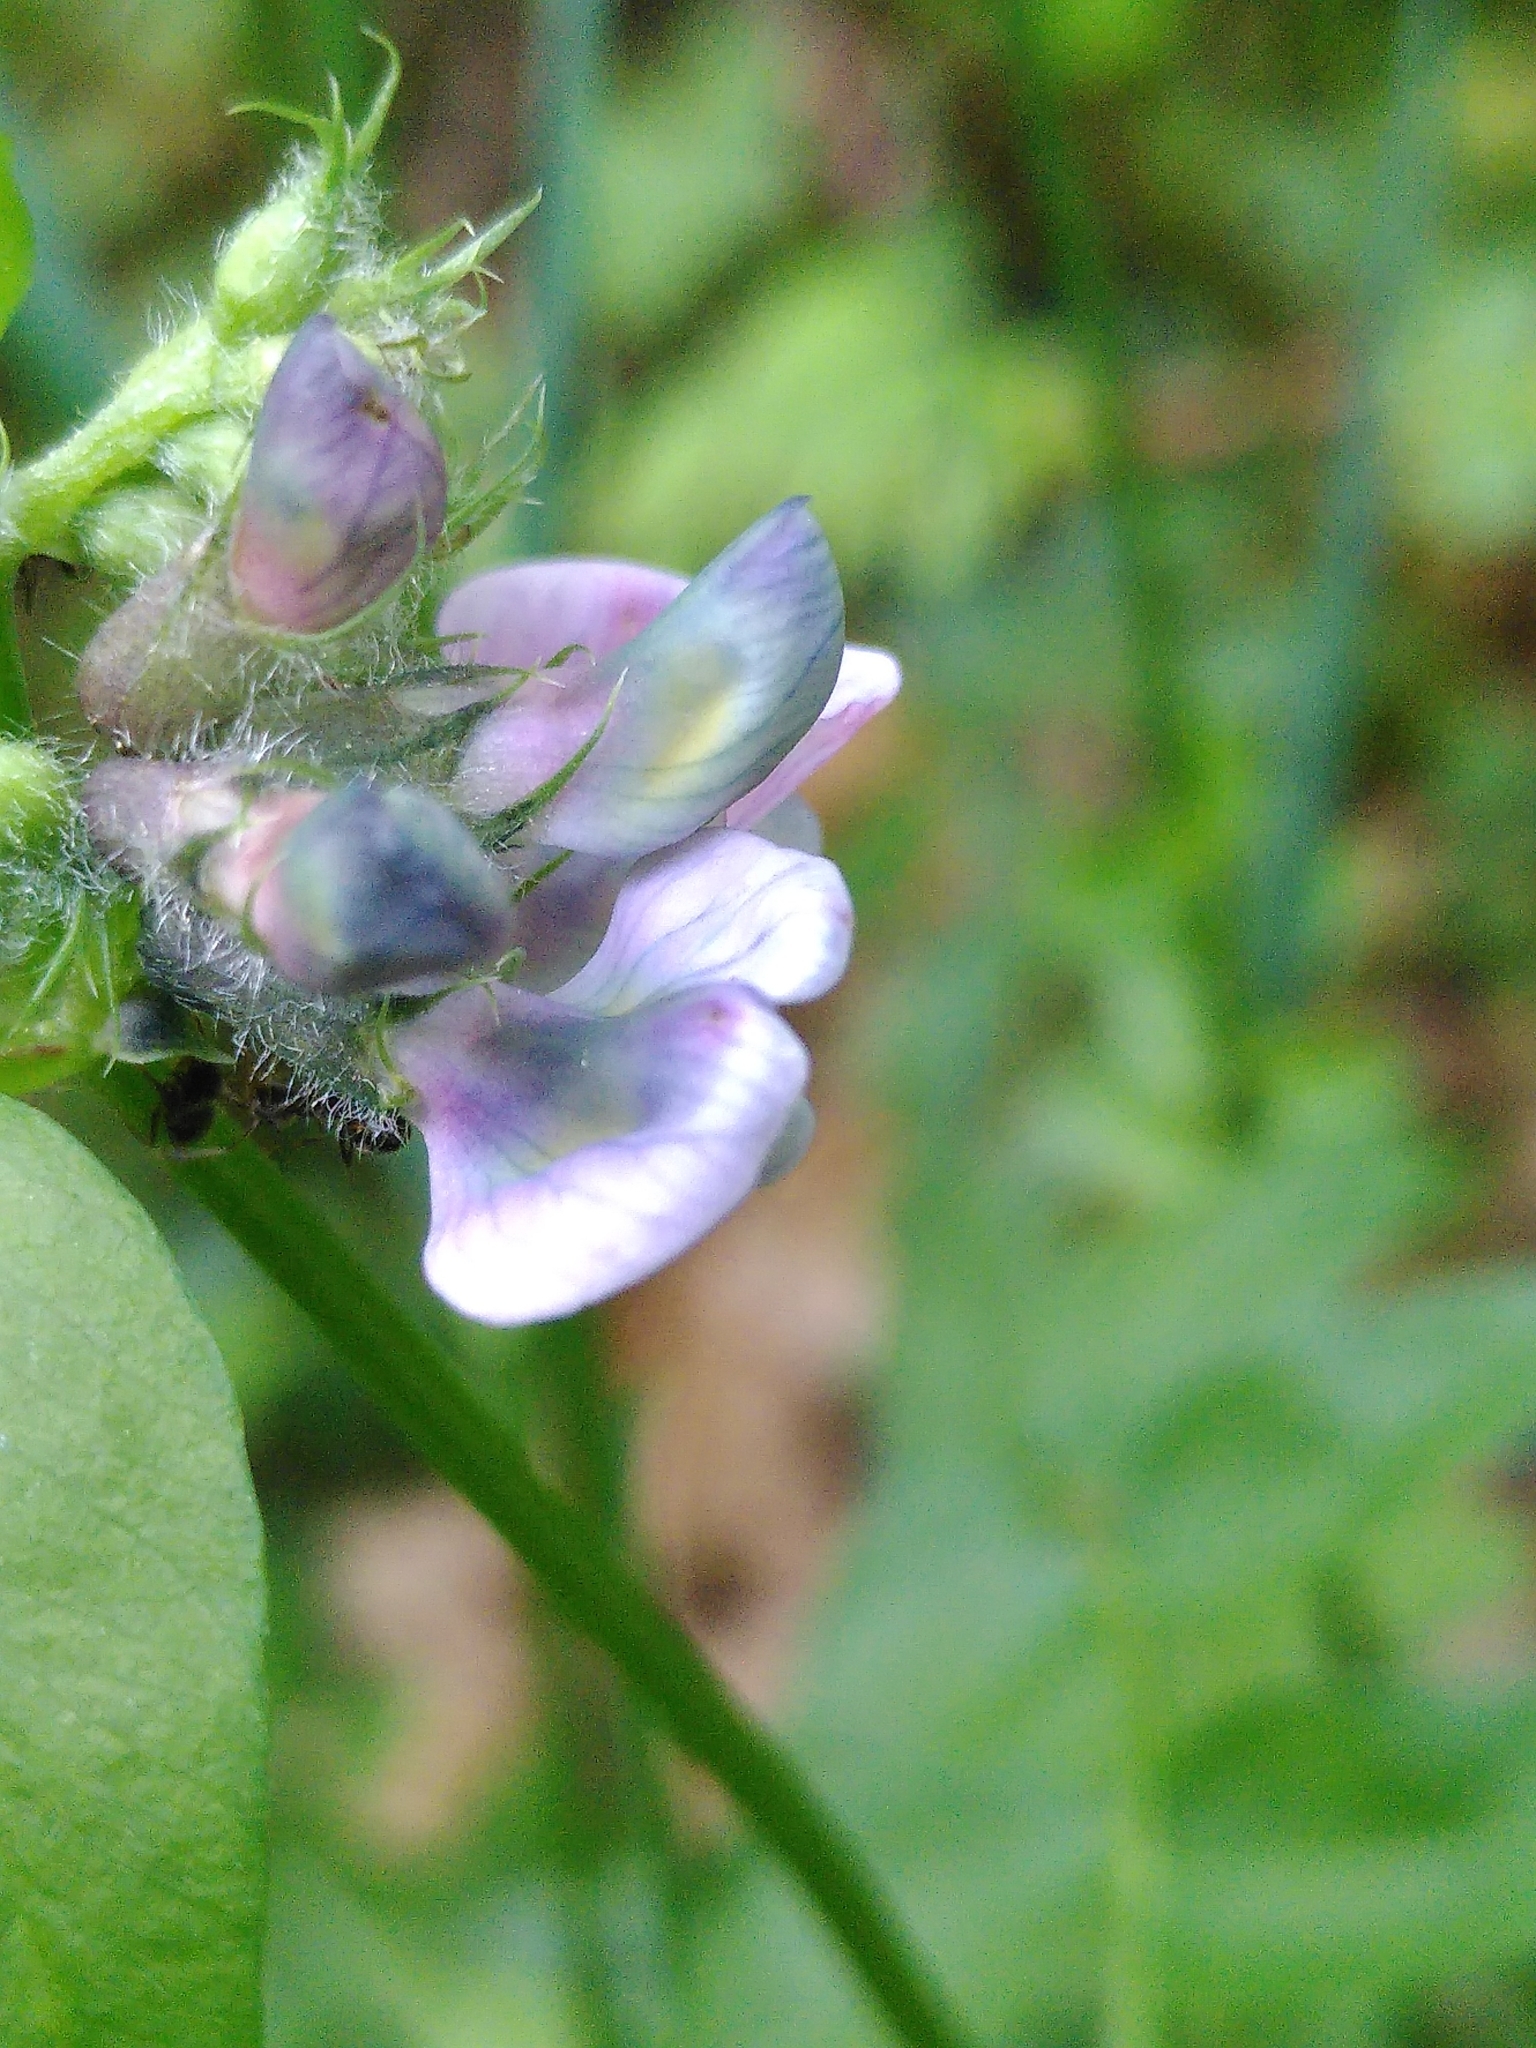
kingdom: Plantae
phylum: Tracheophyta
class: Magnoliopsida
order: Fabales
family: Fabaceae
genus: Vicia
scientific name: Vicia sepium
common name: Bush vetch
